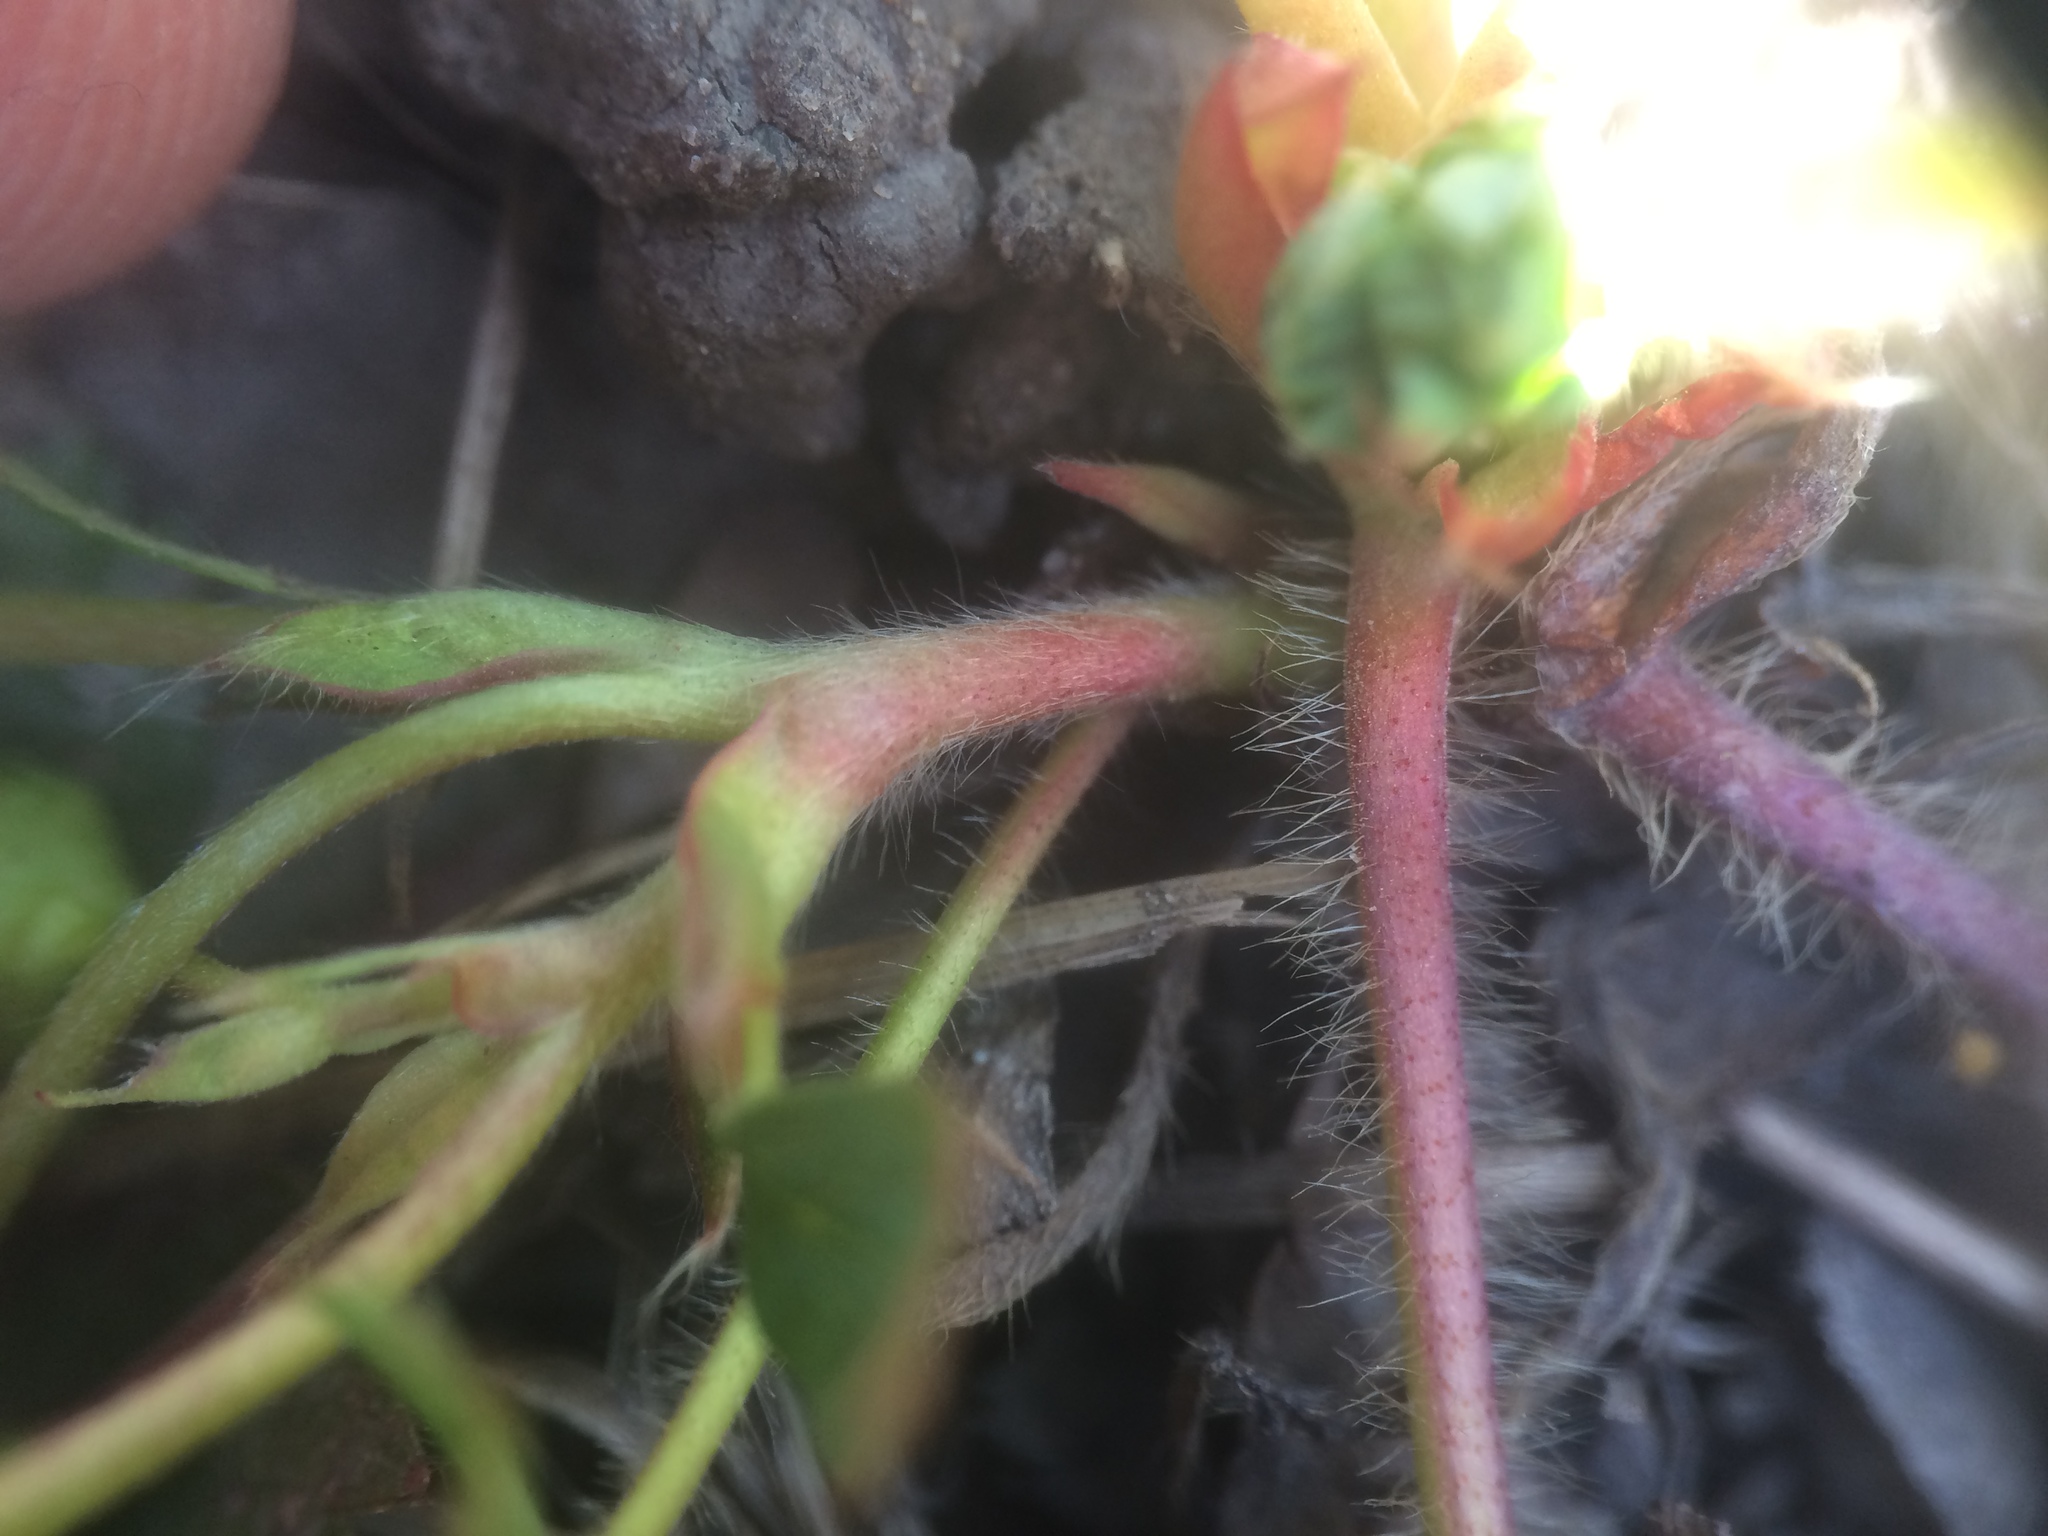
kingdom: Plantae
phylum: Tracheophyta
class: Magnoliopsida
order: Rosales
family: Rosaceae
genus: Fragaria
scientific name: Fragaria virginiana
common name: Thickleaved wild strawberry
